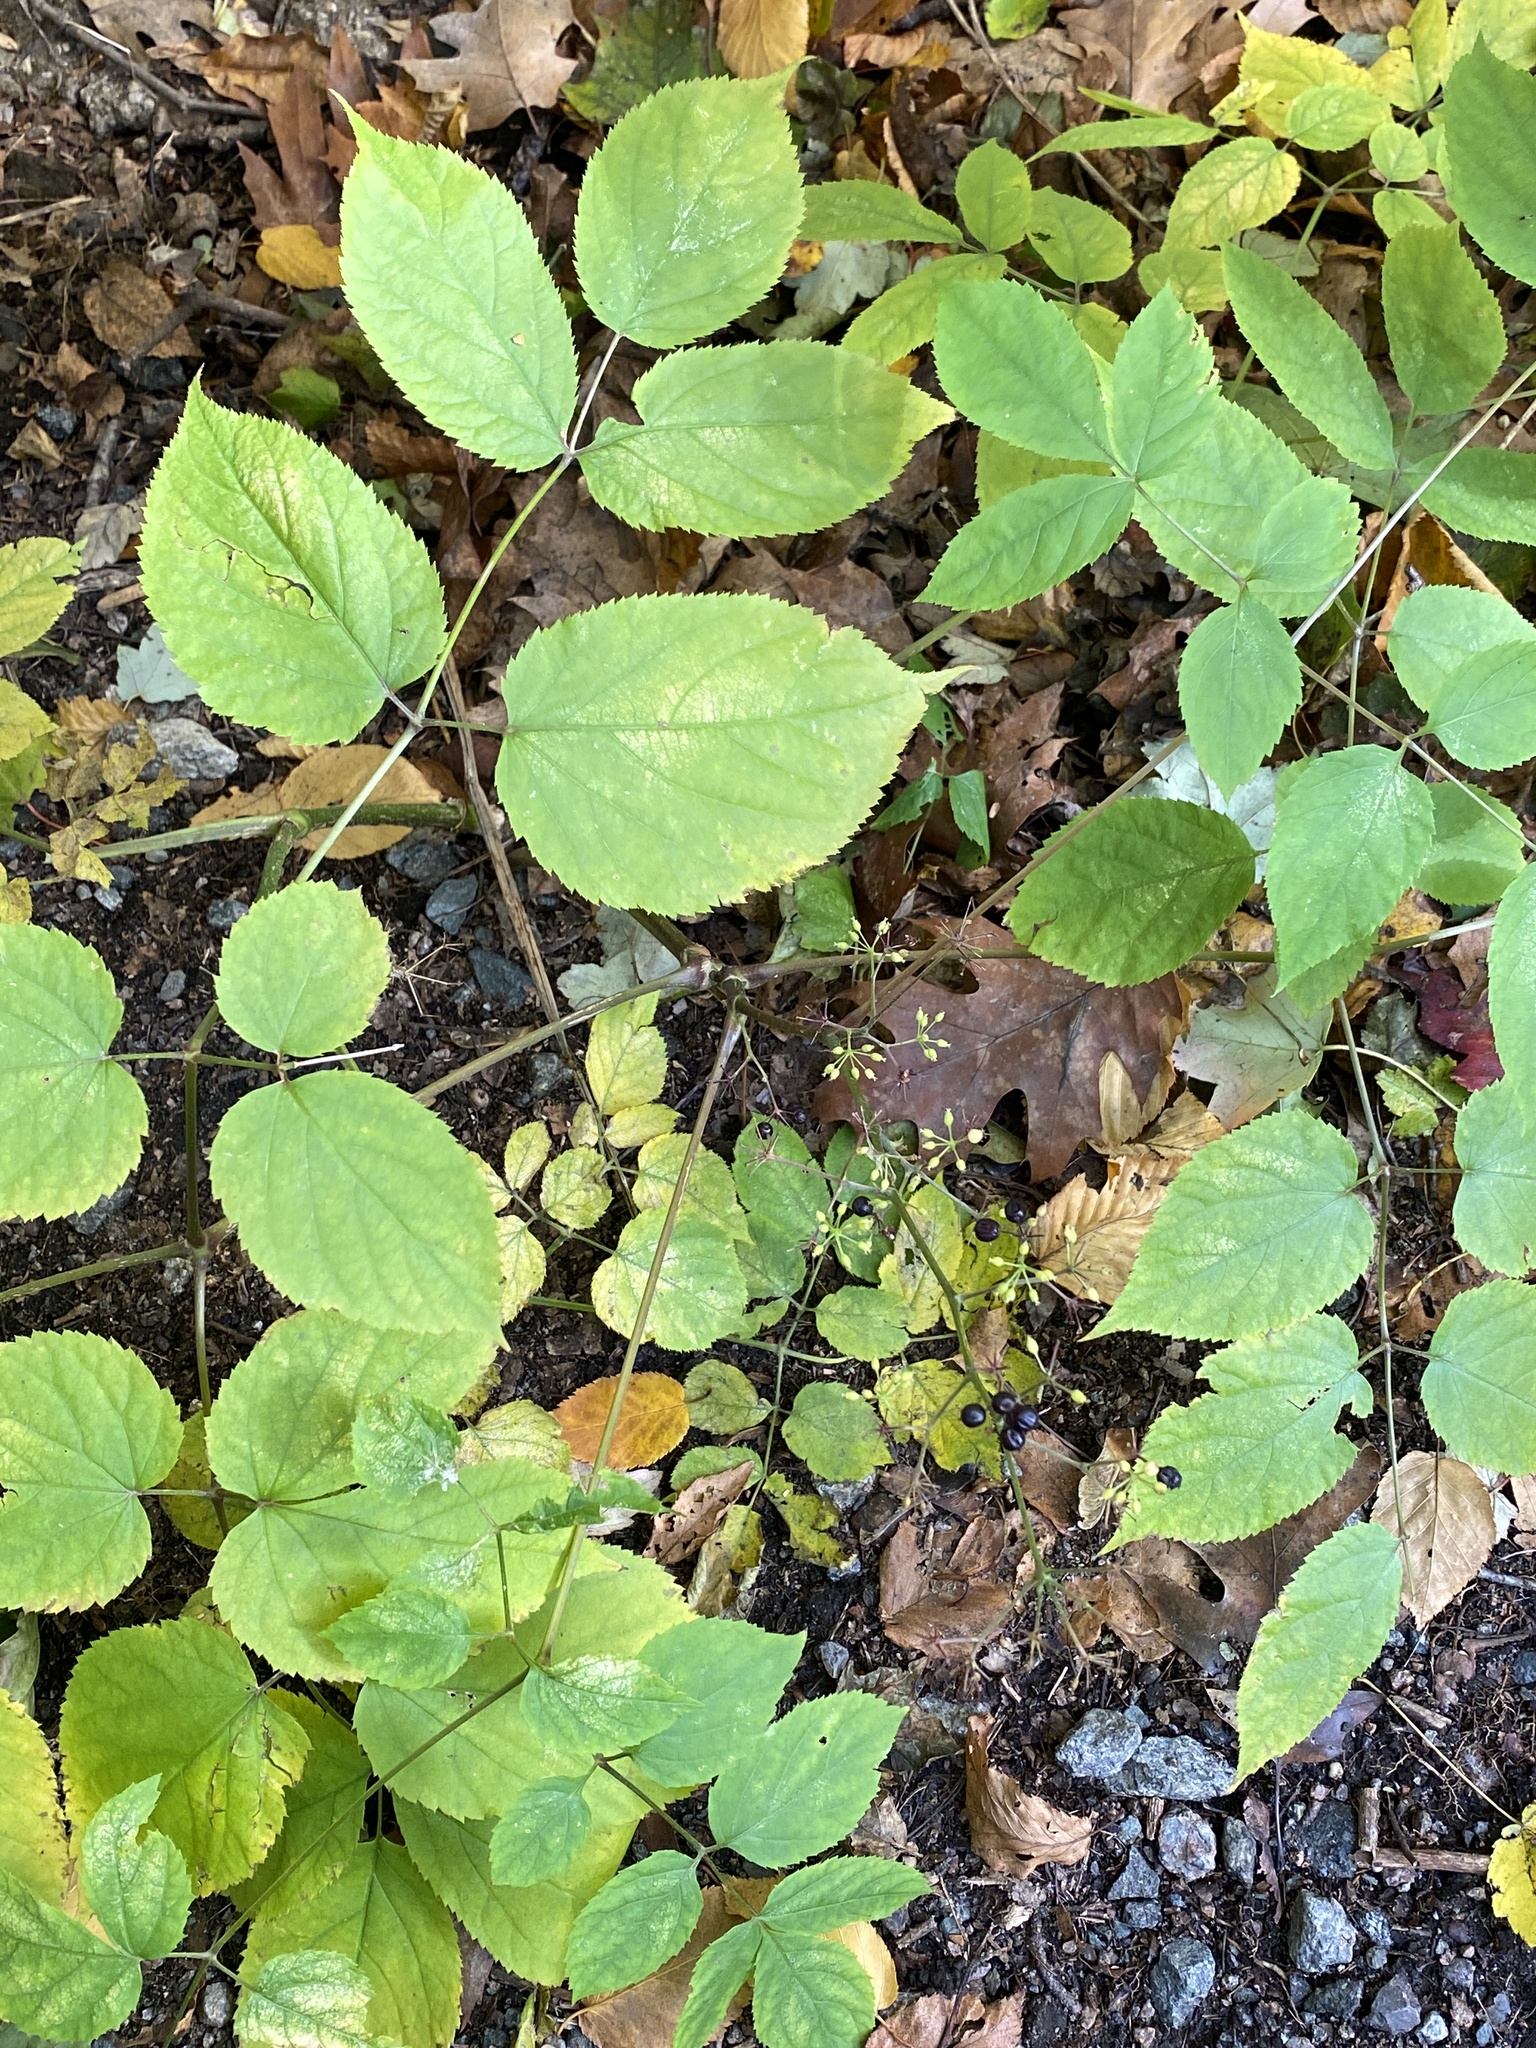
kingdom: Plantae
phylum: Tracheophyta
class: Magnoliopsida
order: Apiales
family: Araliaceae
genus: Aralia
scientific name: Aralia racemosa
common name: American-spikenard
